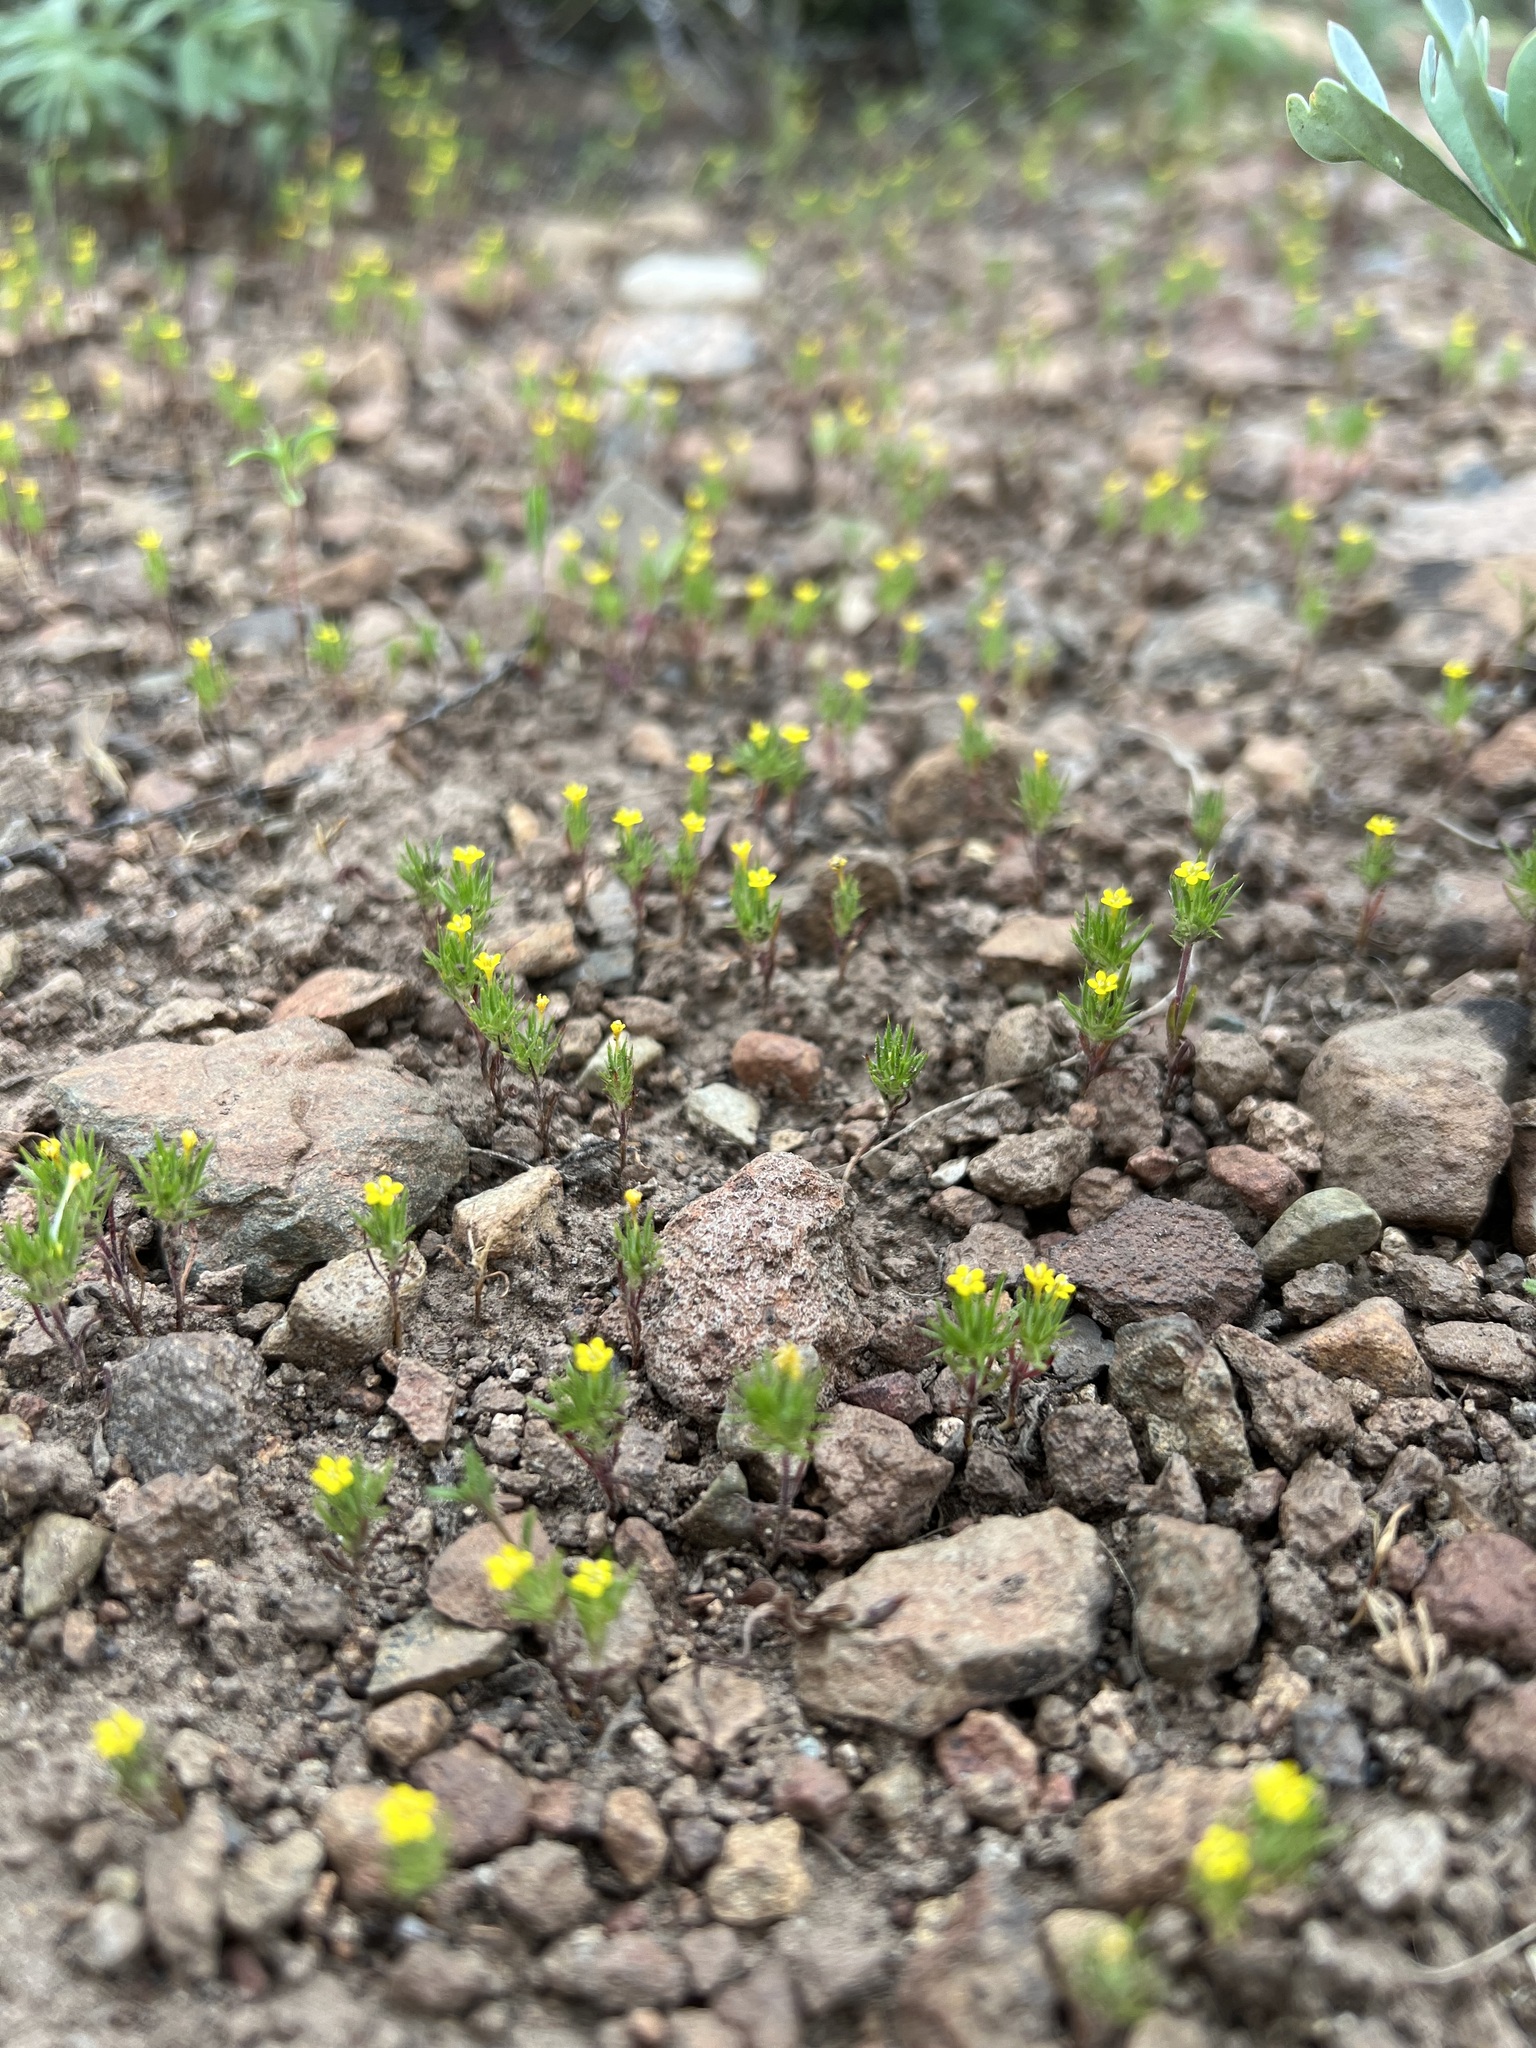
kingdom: Plantae
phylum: Tracheophyta
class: Magnoliopsida
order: Ericales
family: Polemoniaceae
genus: Navarretia
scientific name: Navarretia breweri
